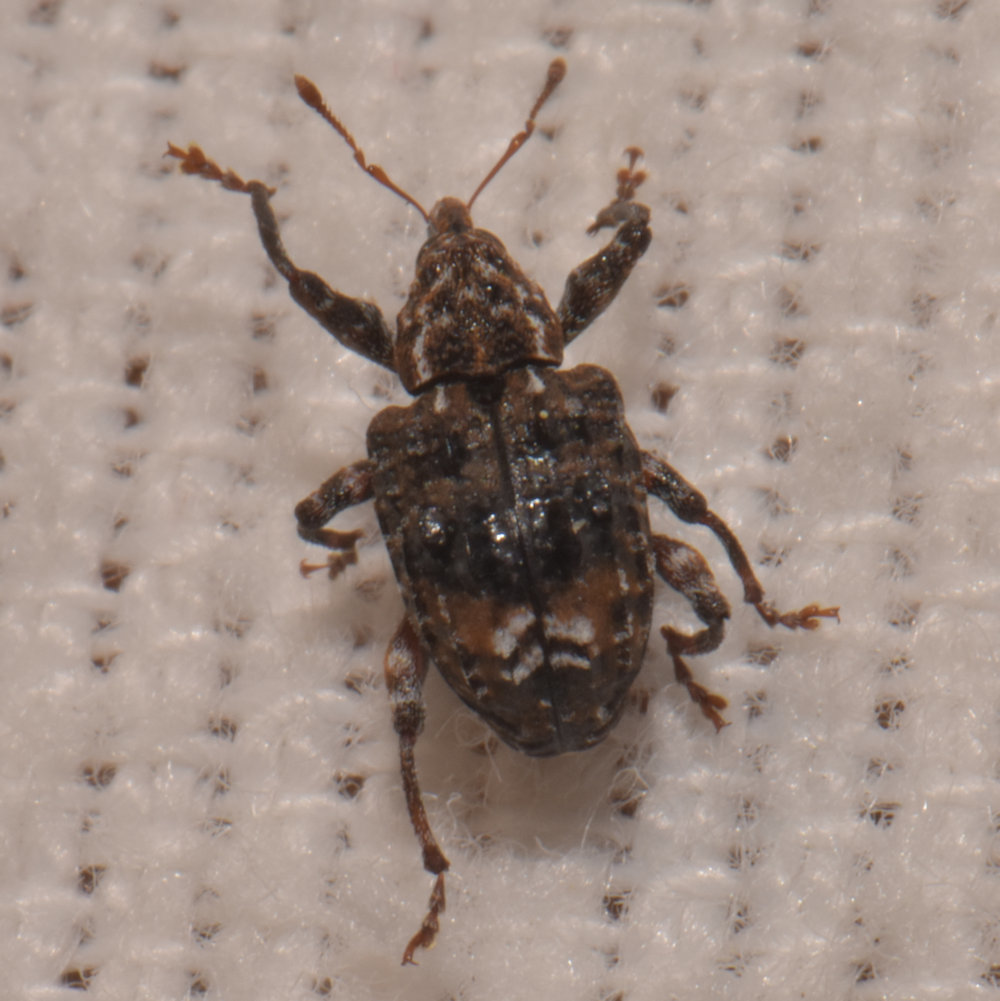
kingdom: Animalia
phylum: Arthropoda
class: Insecta
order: Coleoptera
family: Curculionidae
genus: Conotrachelus
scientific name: Conotrachelus nenuphar
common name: Plum curculio
